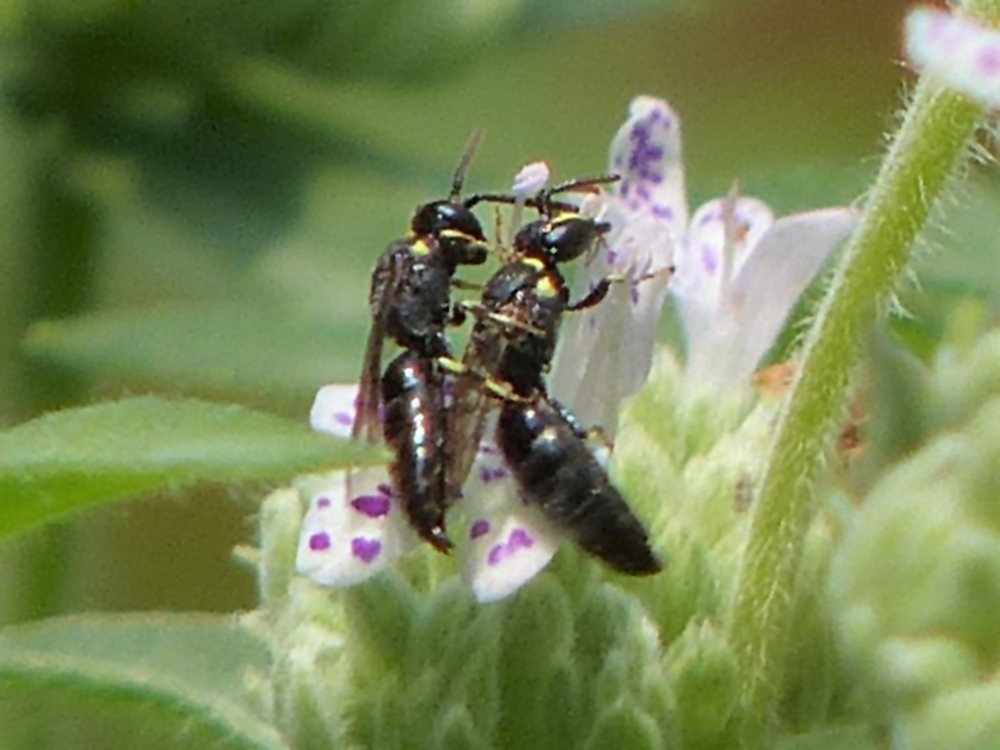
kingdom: Animalia
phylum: Arthropoda
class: Insecta
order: Hymenoptera
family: Colletidae
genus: Prosopis
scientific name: Prosopis
